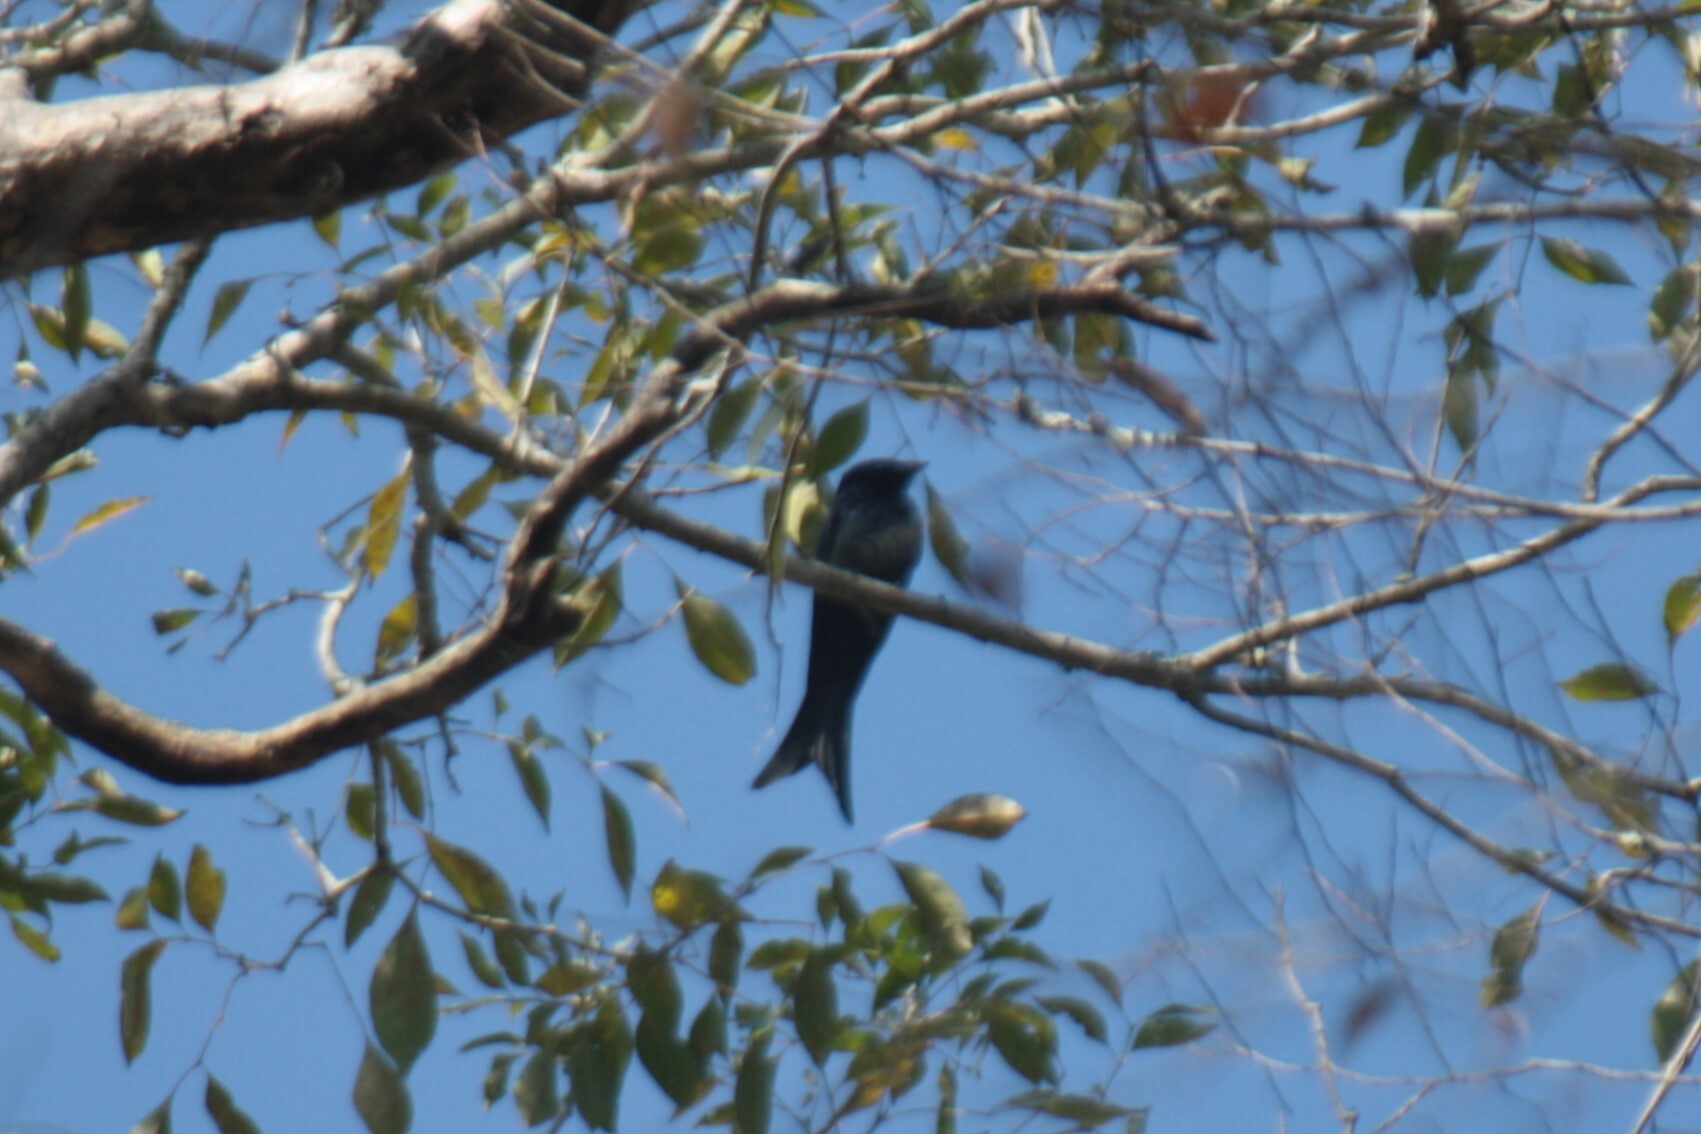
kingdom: Animalia
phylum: Chordata
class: Aves
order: Passeriformes
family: Dicruridae
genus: Dicrurus
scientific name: Dicrurus macrocercus
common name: Black drongo
